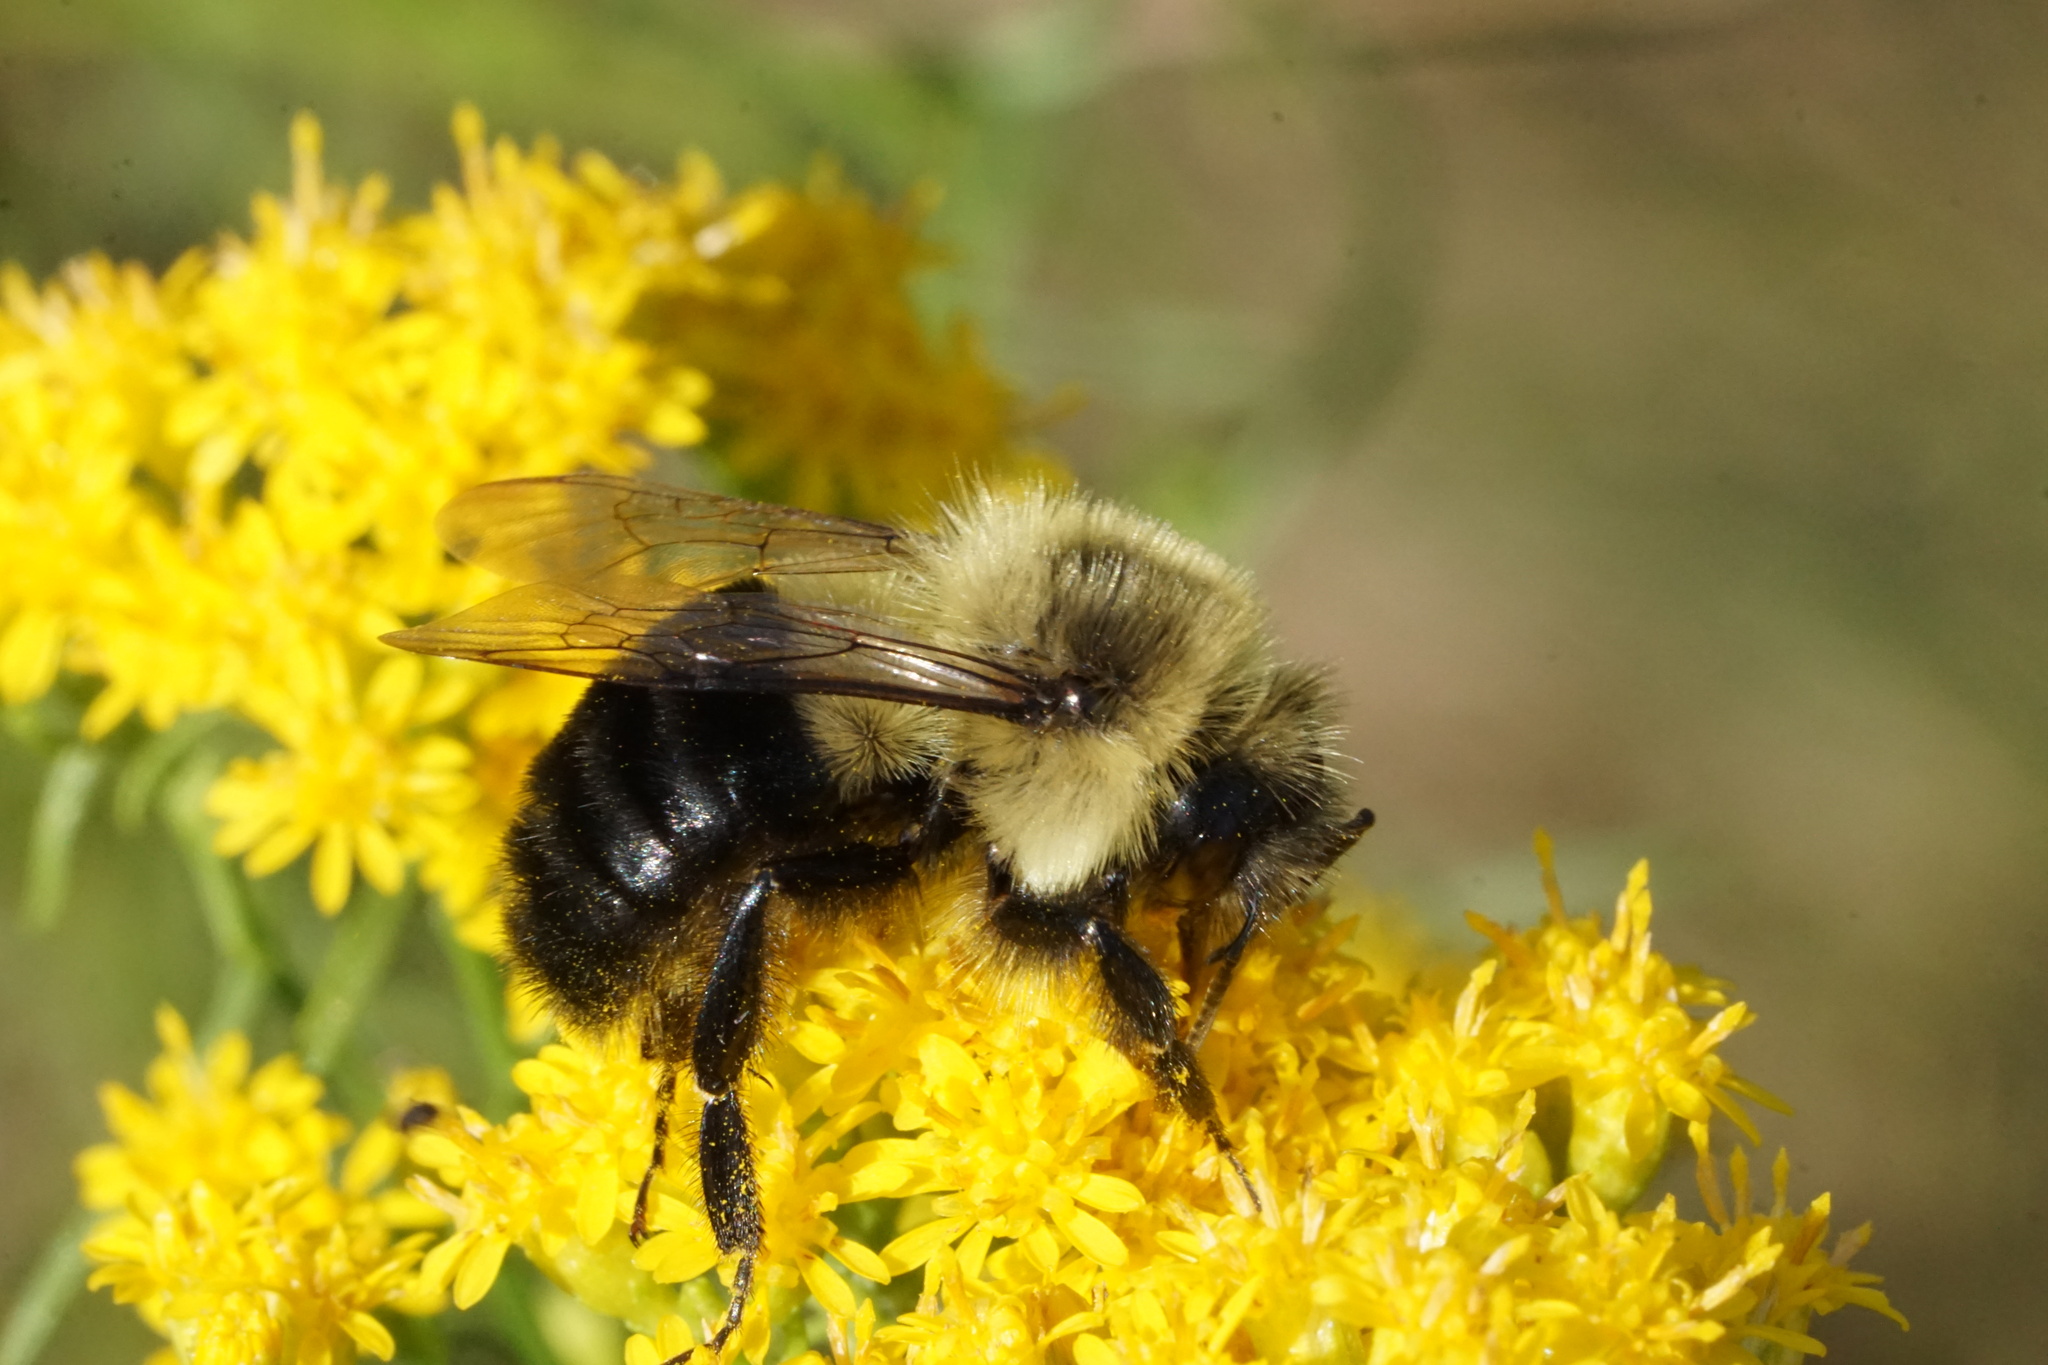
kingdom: Animalia
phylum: Arthropoda
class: Insecta
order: Hymenoptera
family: Apidae
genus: Bombus
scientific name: Bombus impatiens
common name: Common eastern bumble bee
